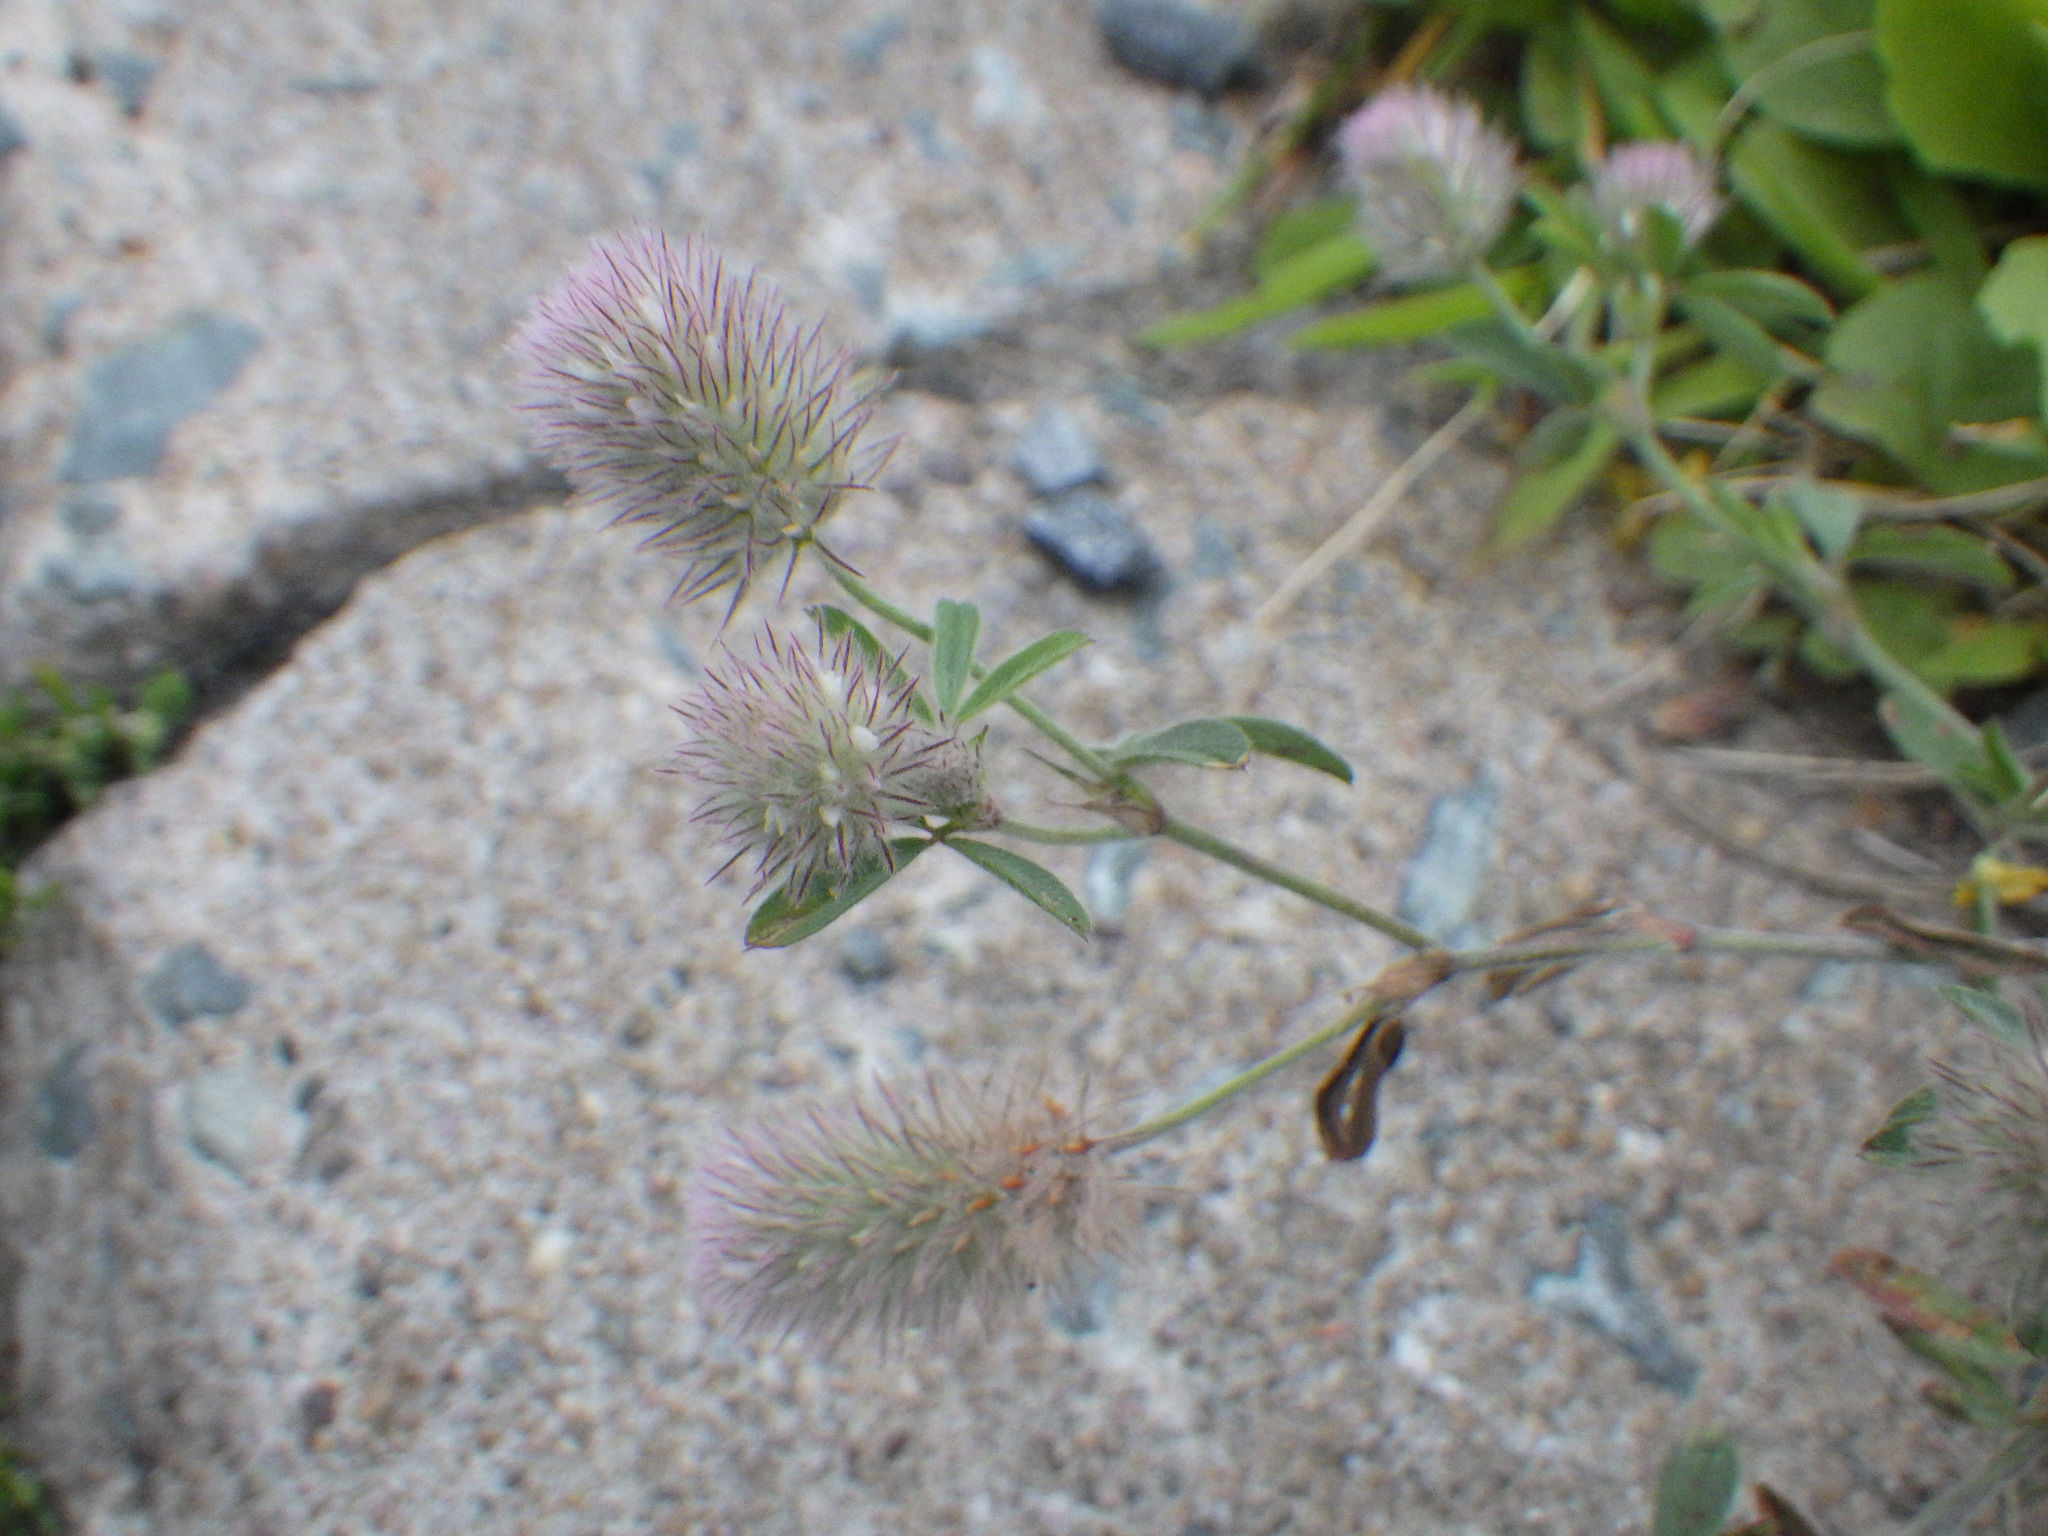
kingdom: Plantae
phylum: Tracheophyta
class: Magnoliopsida
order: Fabales
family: Fabaceae
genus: Trifolium
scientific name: Trifolium arvense
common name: Hare's-foot clover
